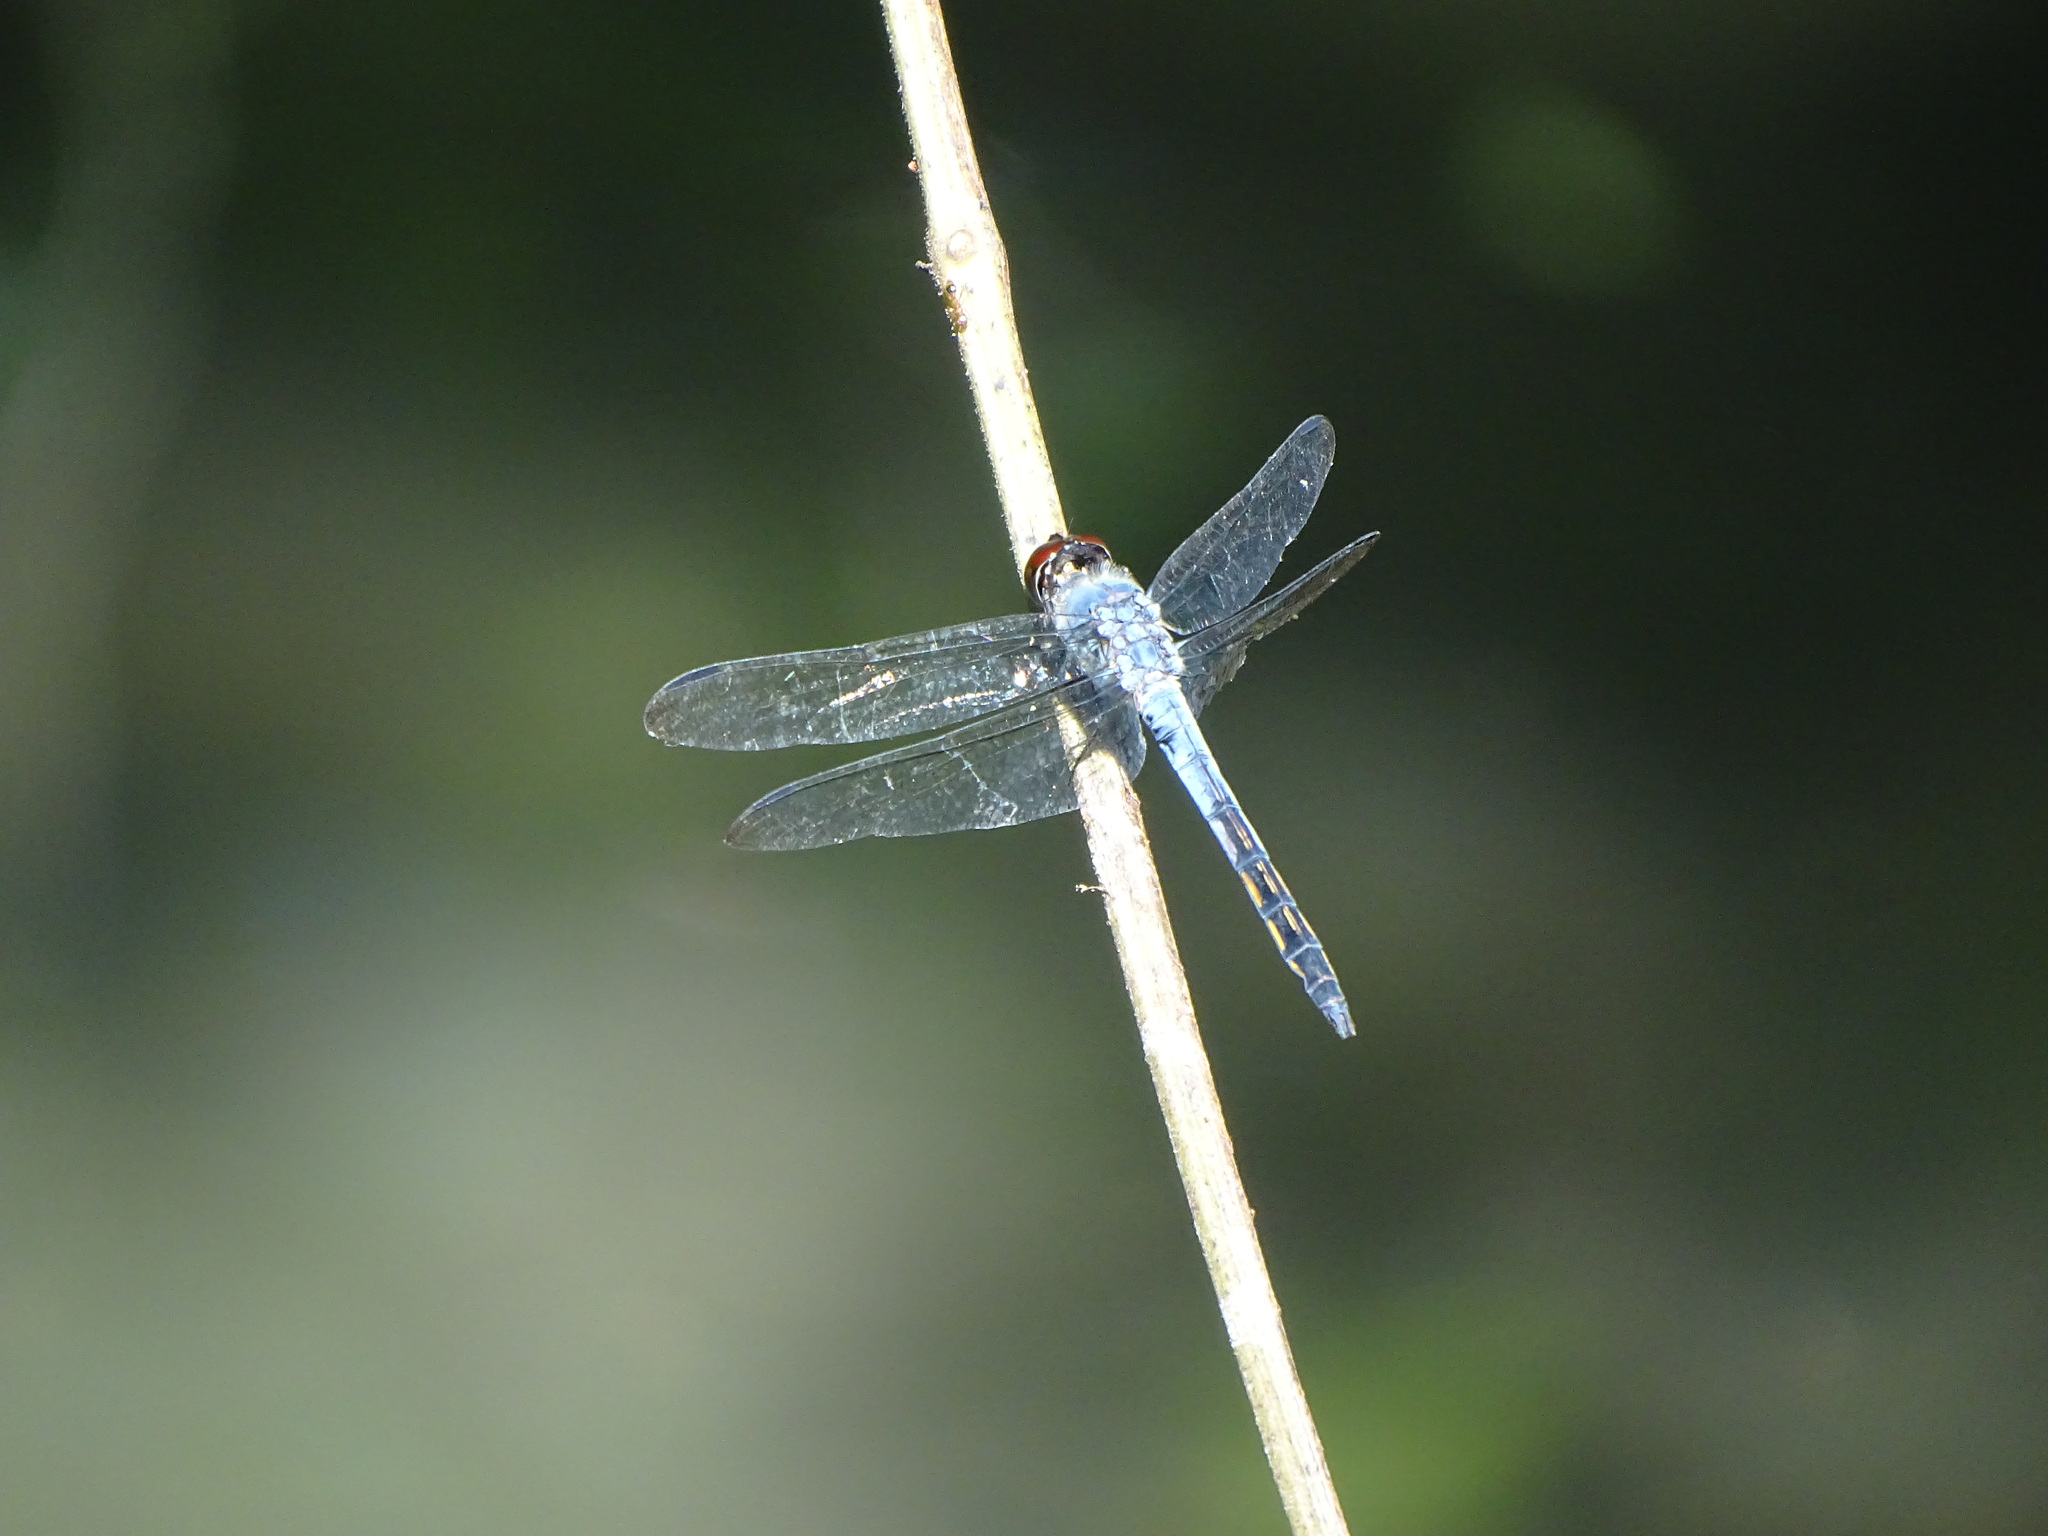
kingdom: Animalia
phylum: Arthropoda
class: Insecta
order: Odonata
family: Libellulidae
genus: Potamarcha
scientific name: Potamarcha congener
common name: Blue chaser
